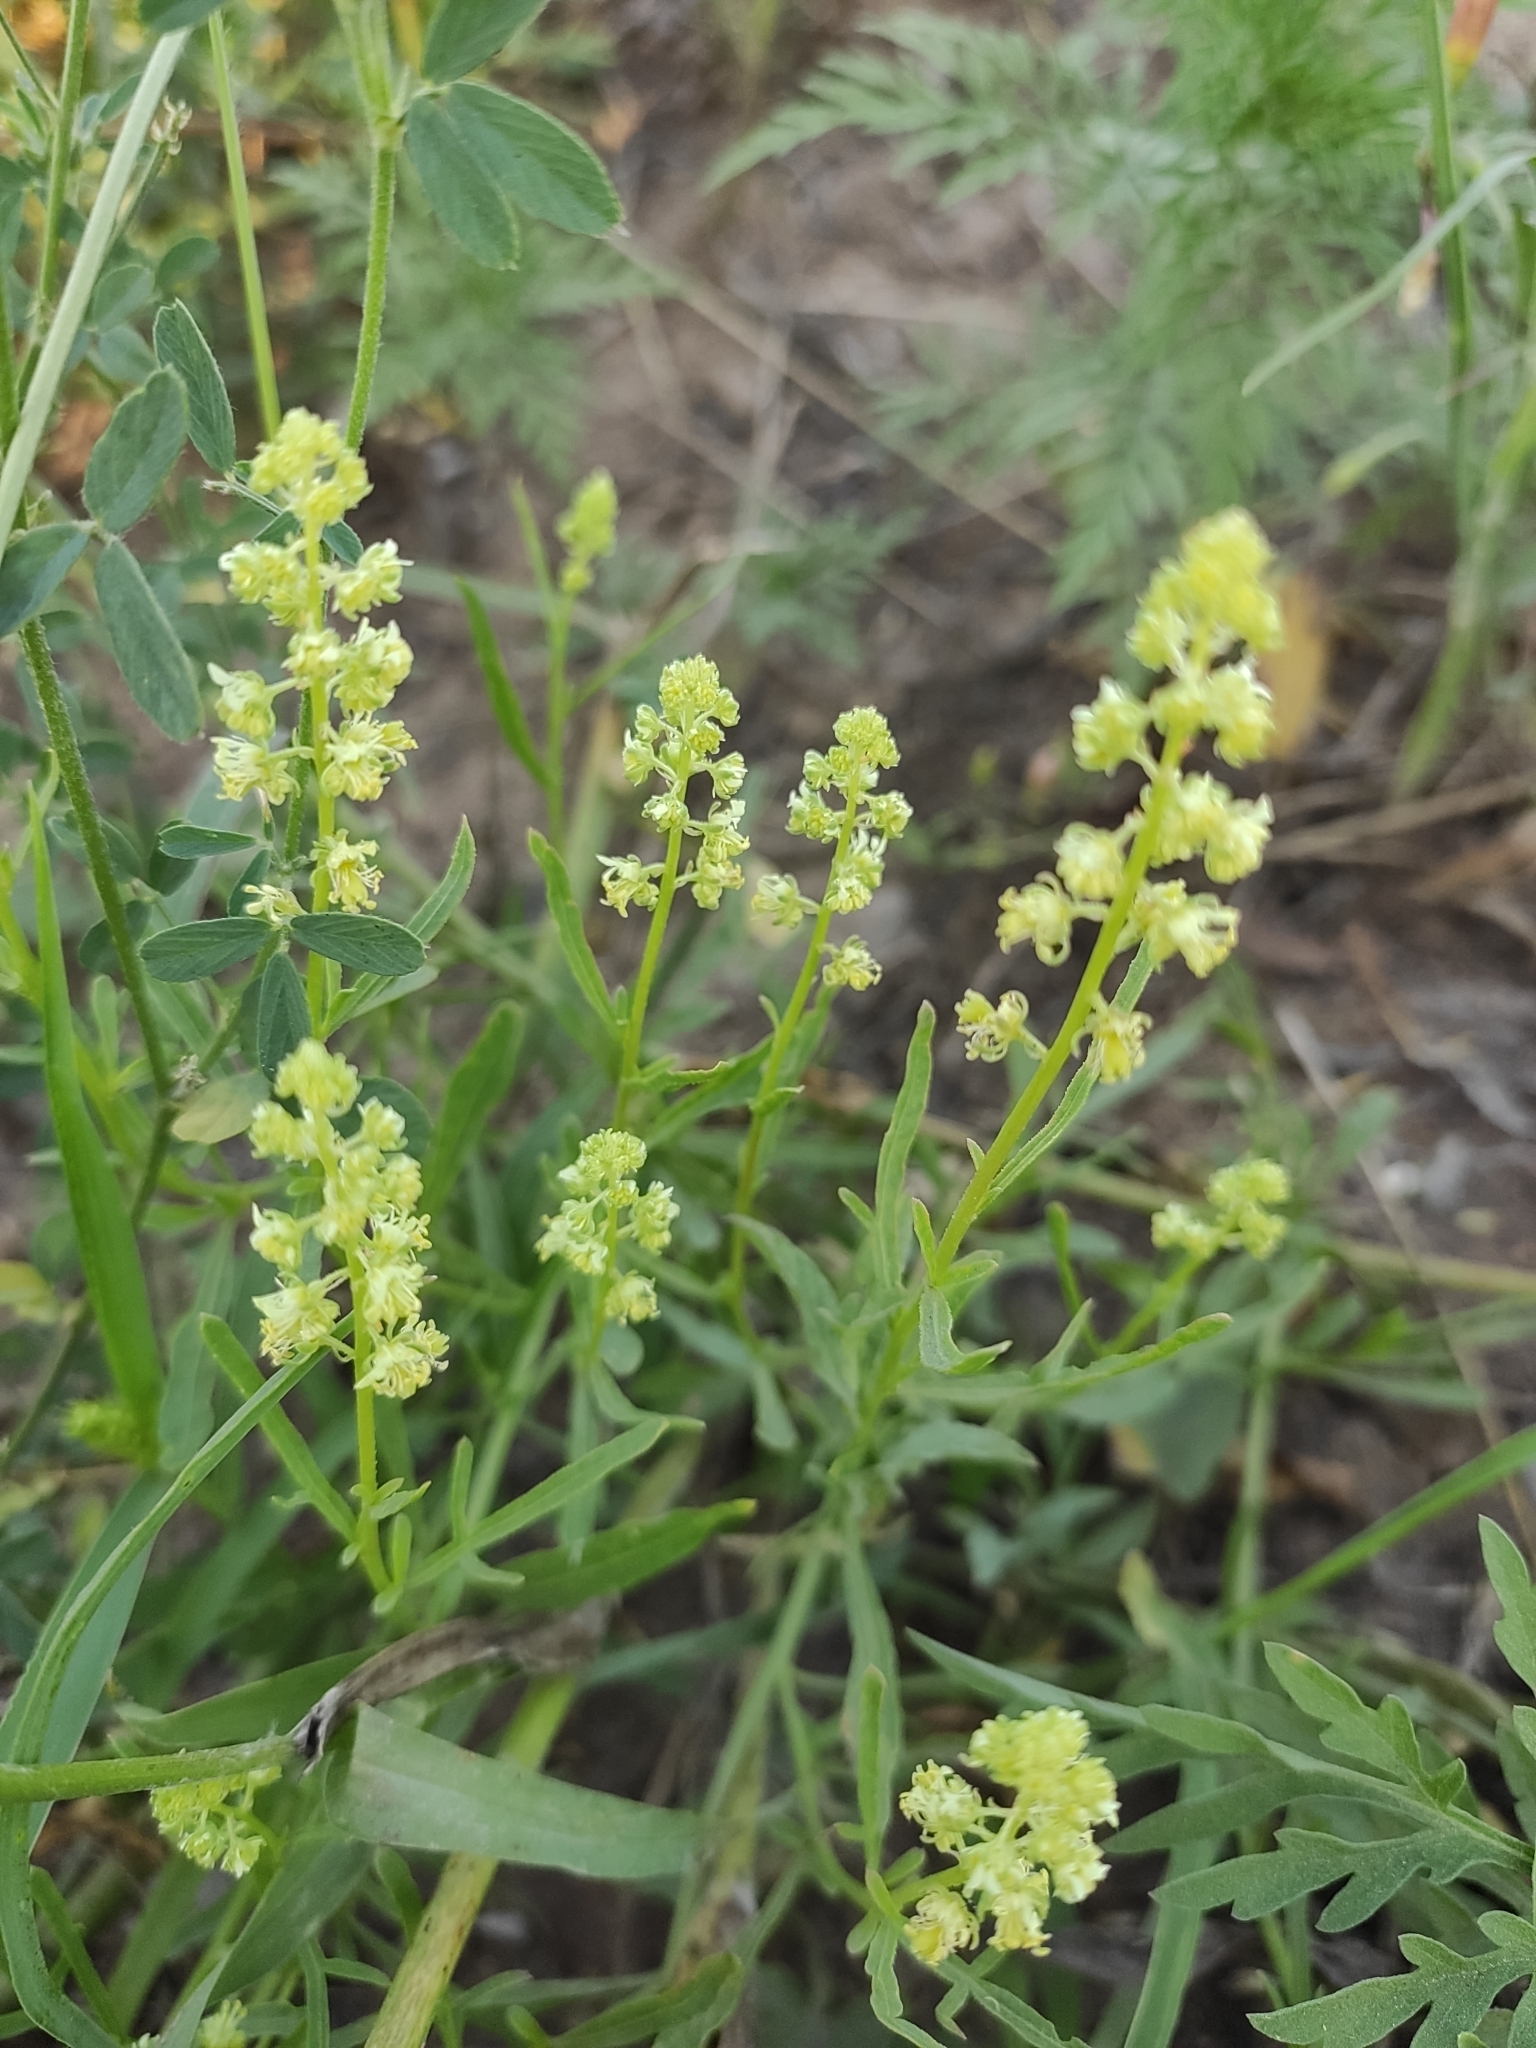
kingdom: Plantae
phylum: Tracheophyta
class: Magnoliopsida
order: Brassicales
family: Resedaceae
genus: Reseda
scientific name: Reseda lutea
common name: Wild mignonette
